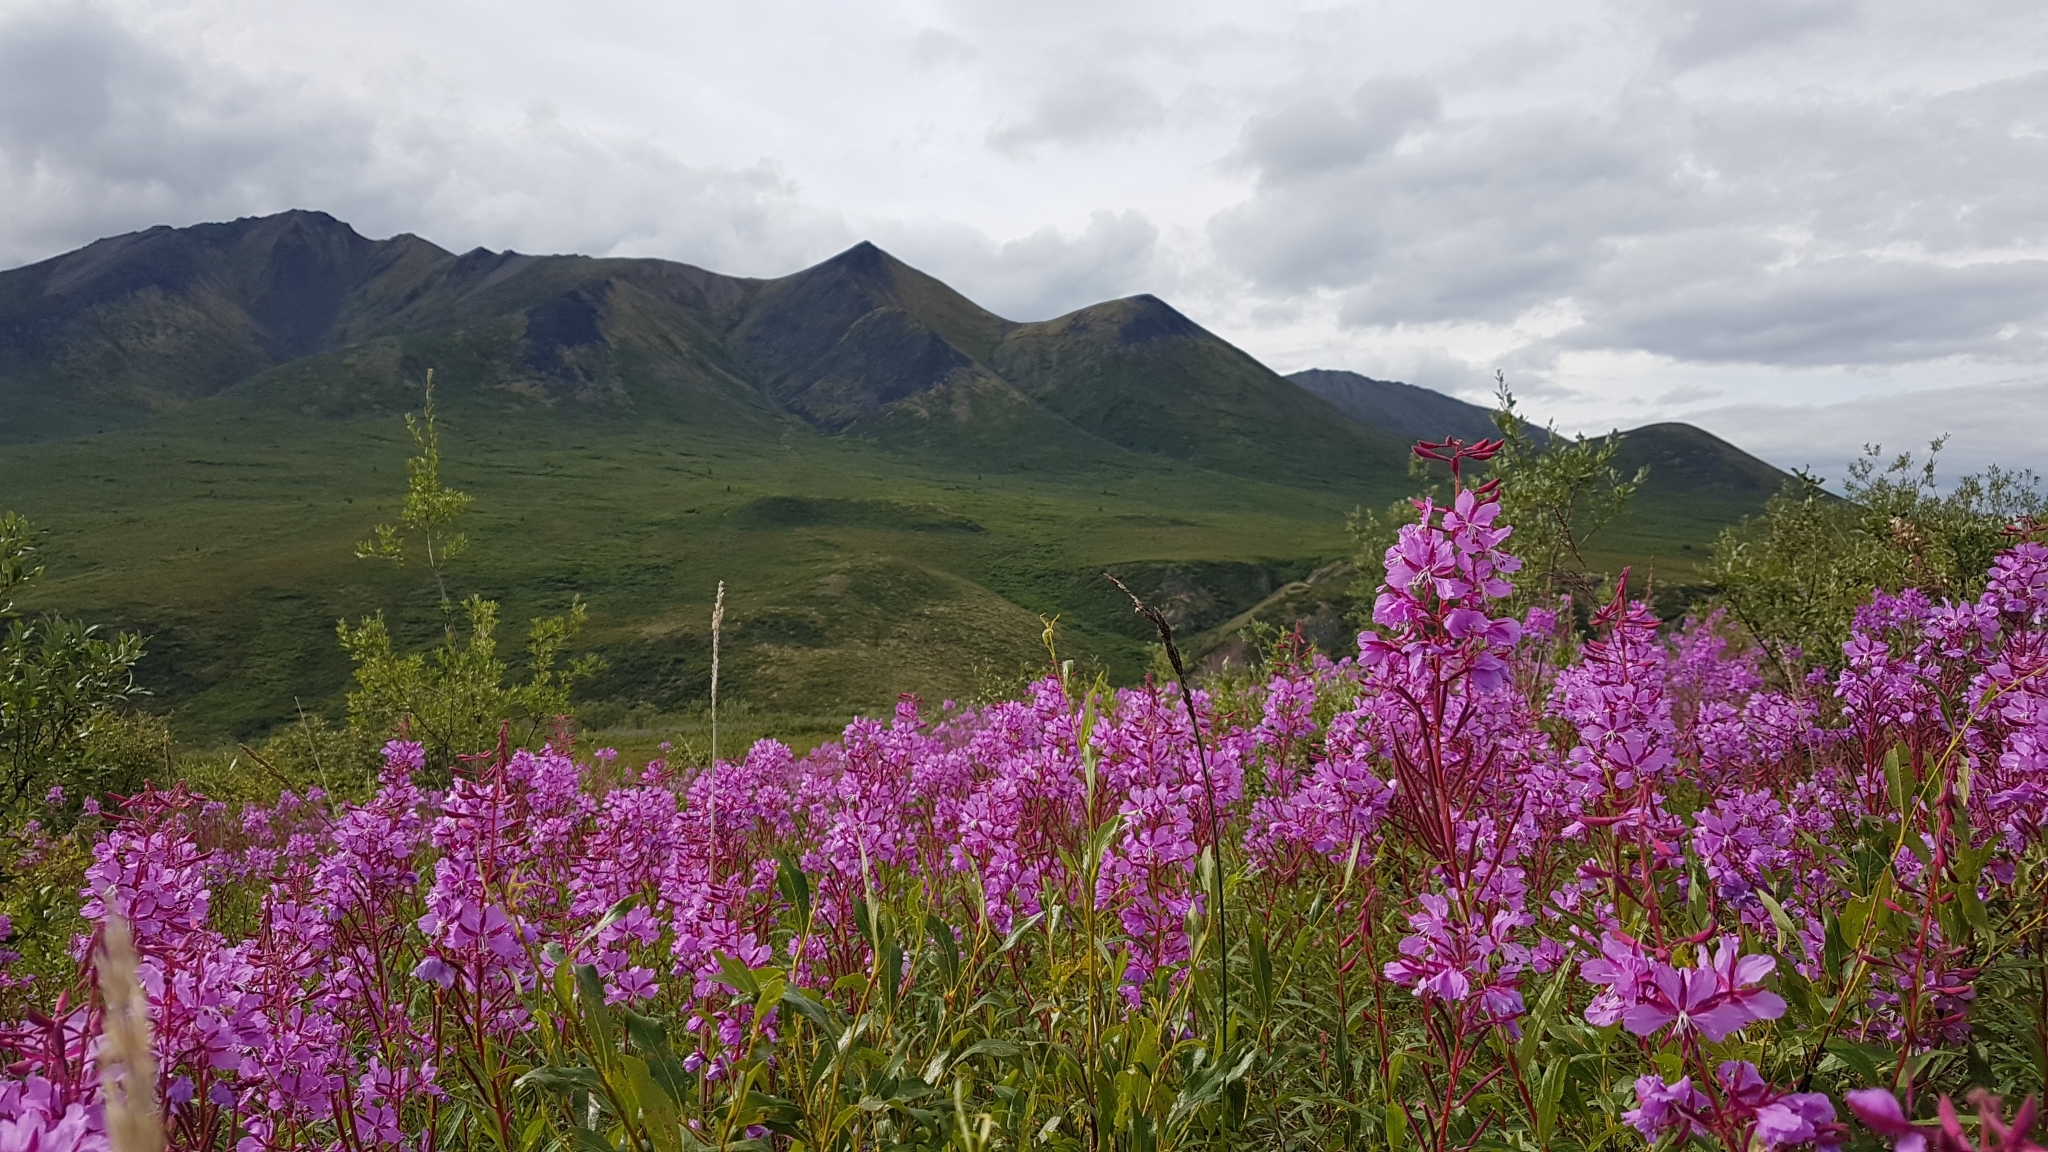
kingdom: Plantae
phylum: Tracheophyta
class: Magnoliopsida
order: Myrtales
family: Onagraceae
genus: Chamaenerion
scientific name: Chamaenerion angustifolium
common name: Fireweed
